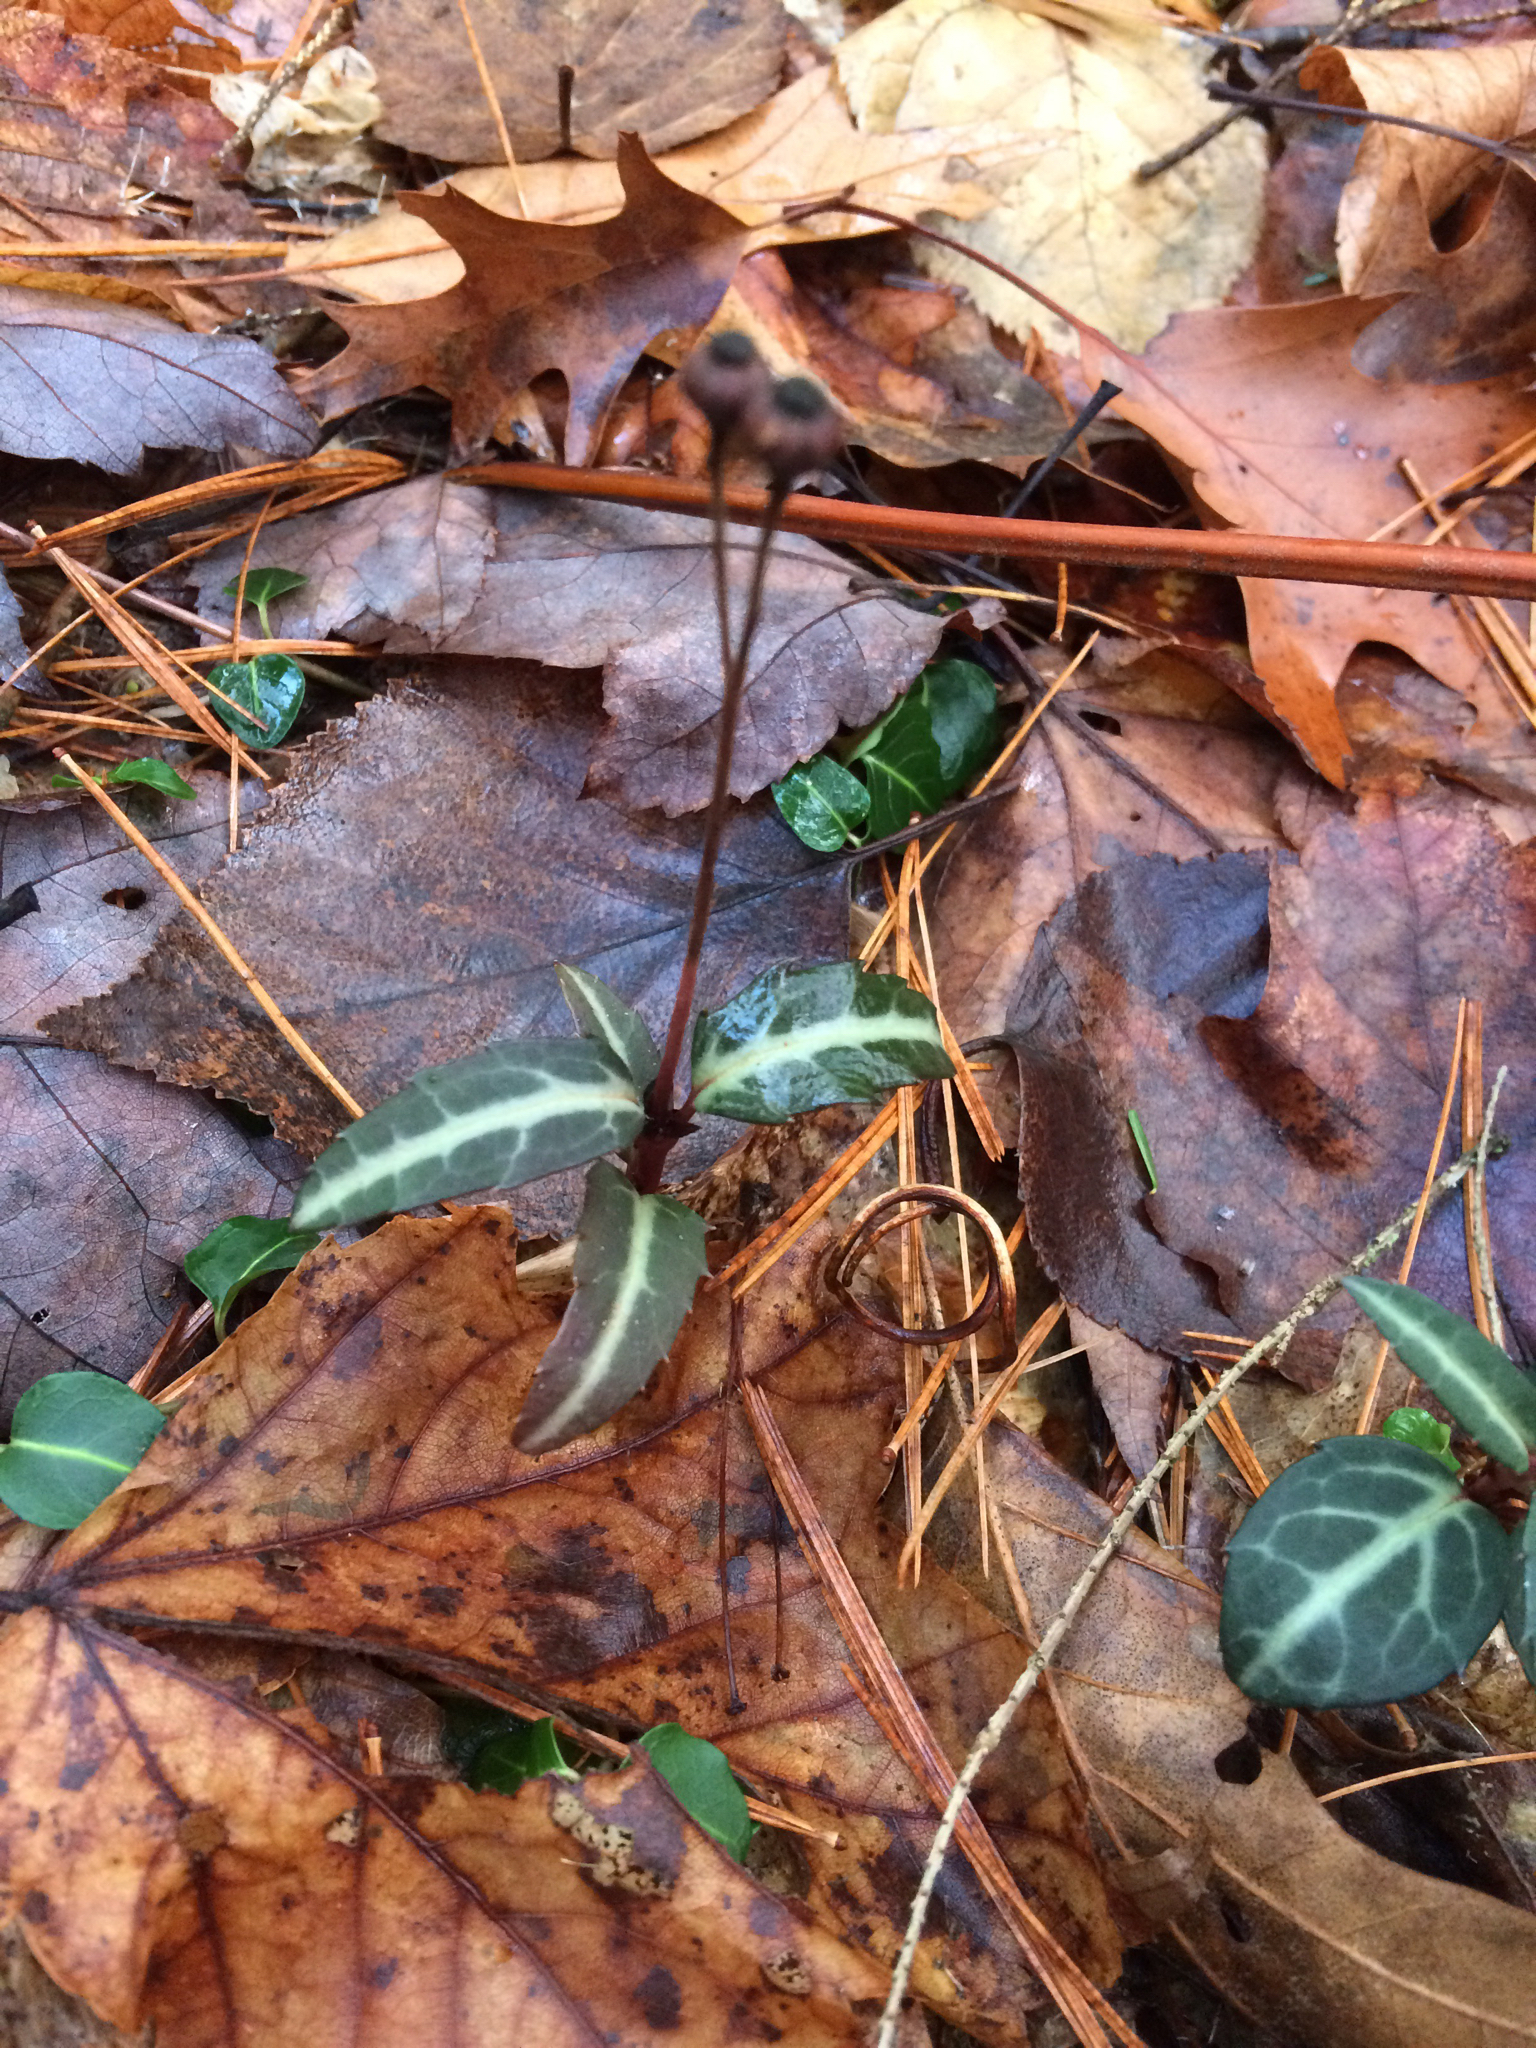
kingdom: Plantae
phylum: Tracheophyta
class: Magnoliopsida
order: Ericales
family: Ericaceae
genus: Chimaphila
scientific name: Chimaphila maculata
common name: Spotted pipsissewa
